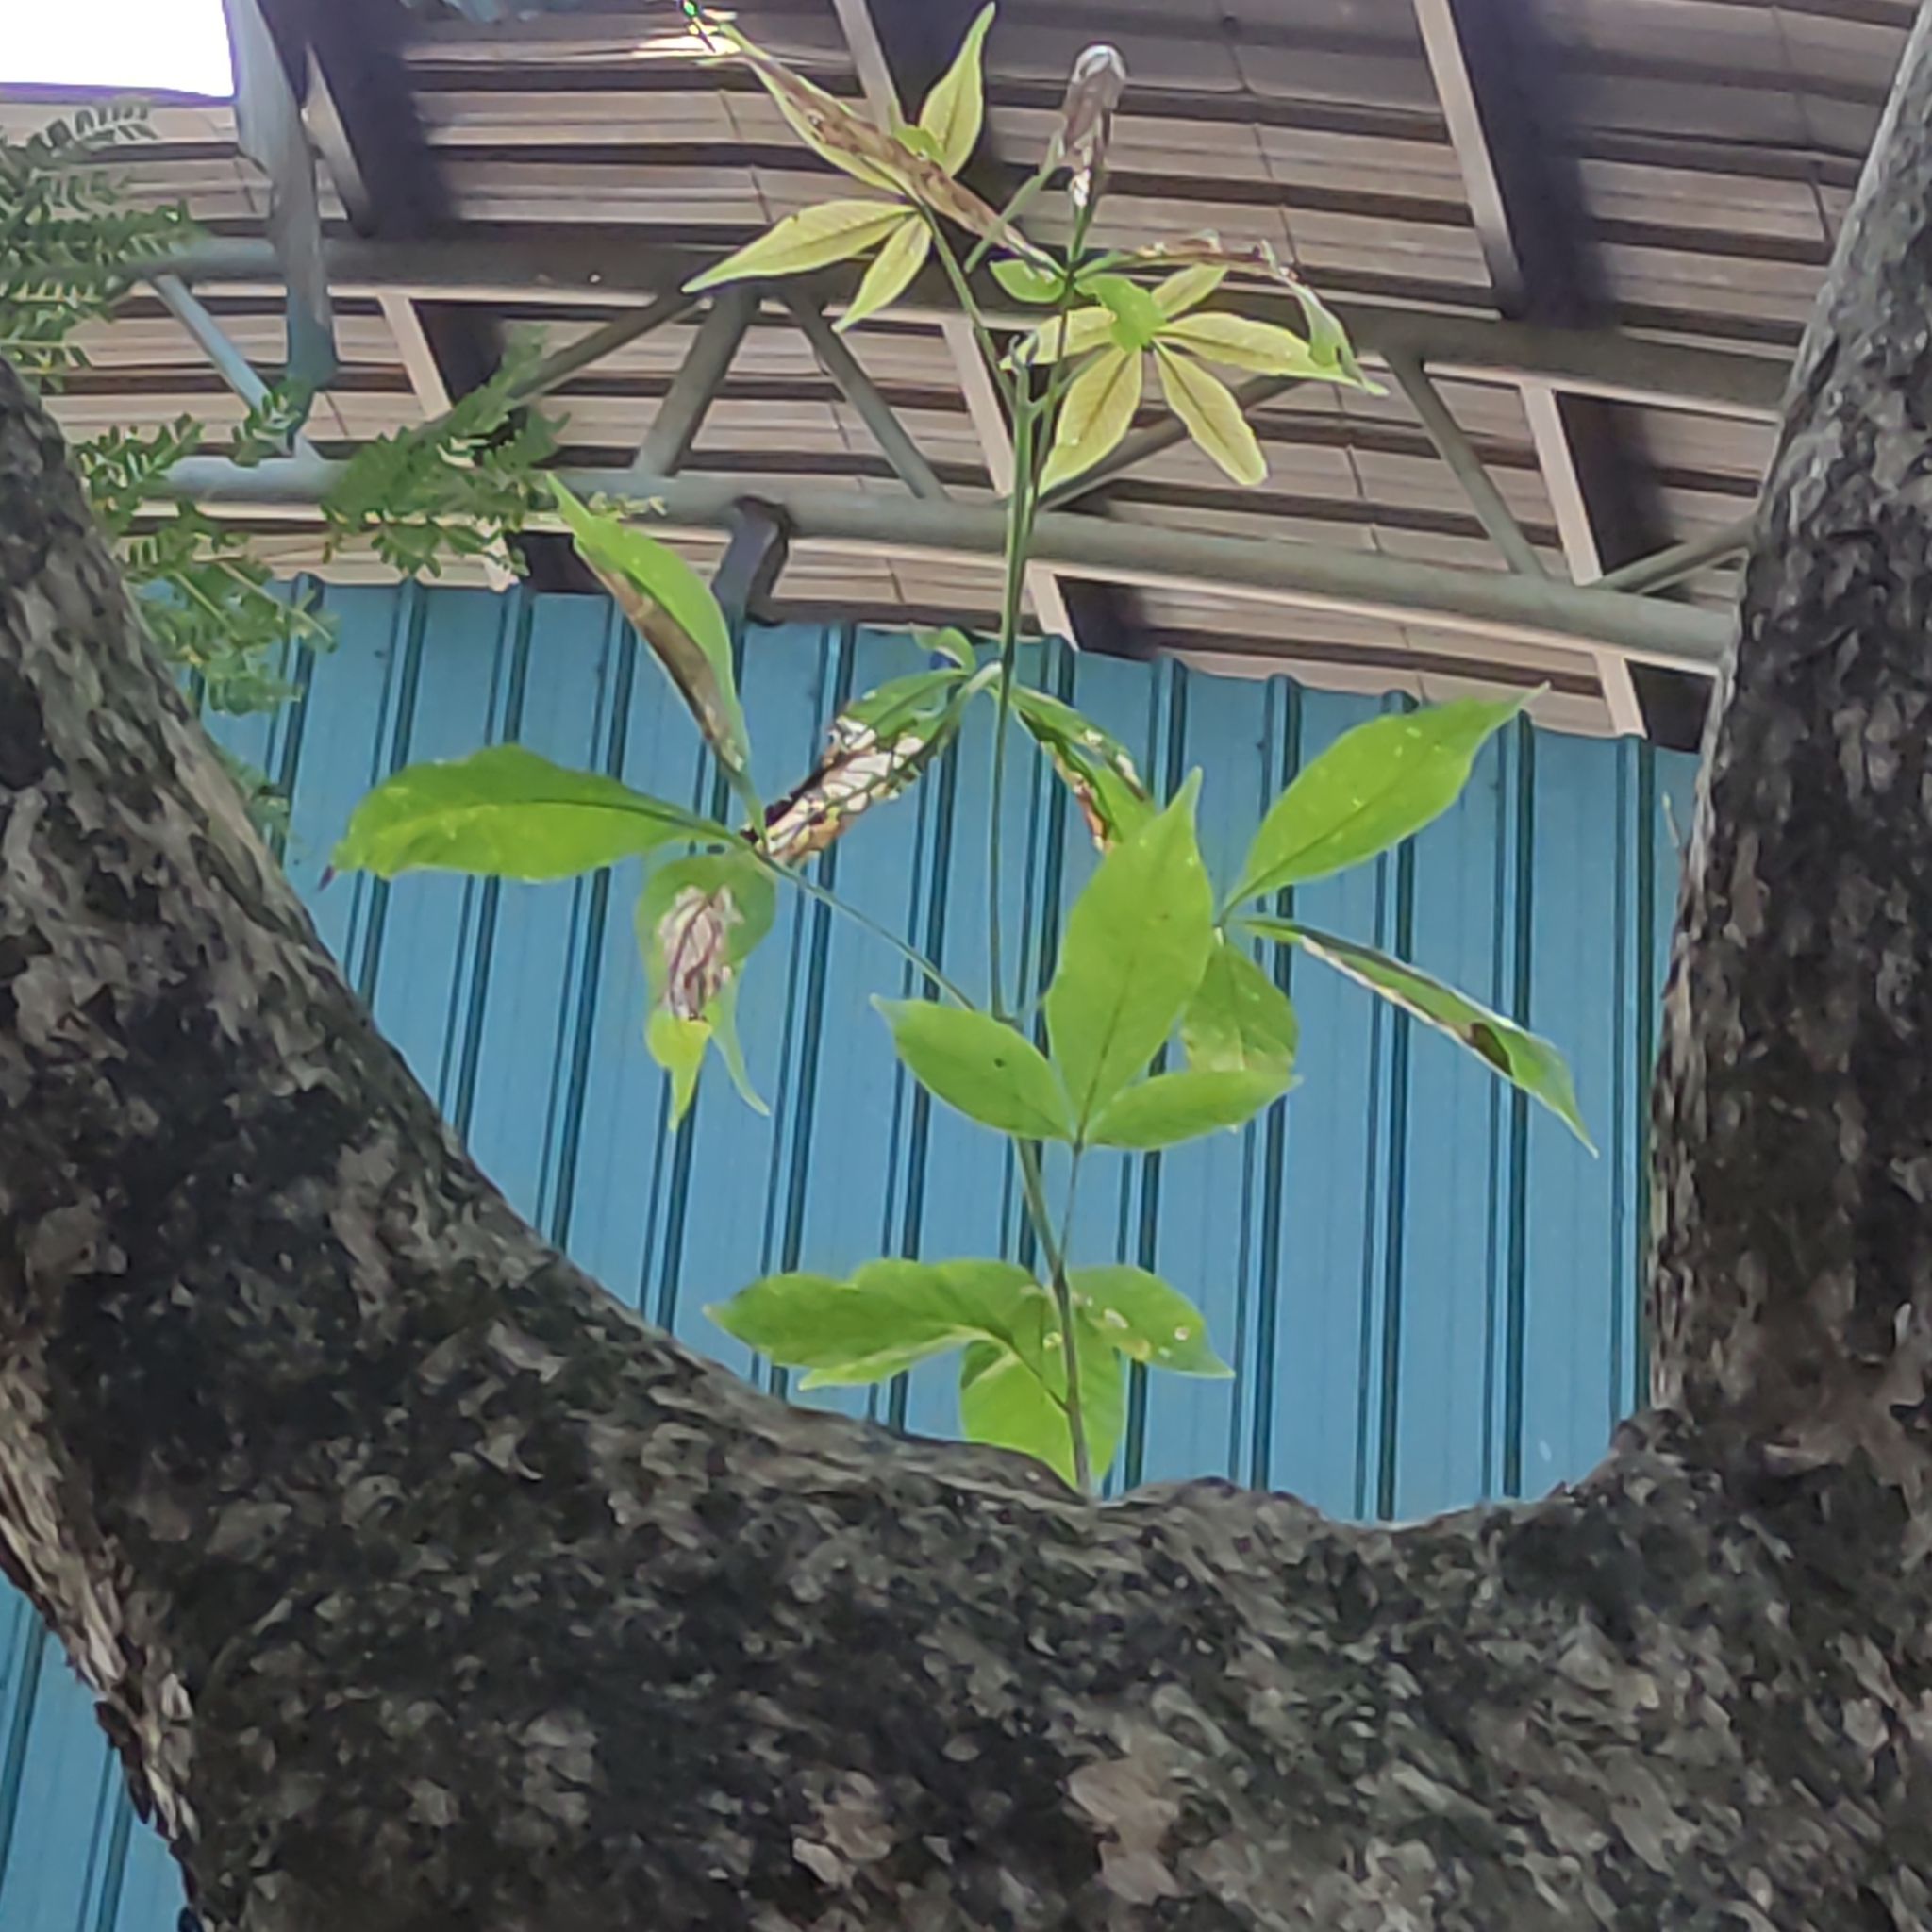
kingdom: Plantae
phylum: Tracheophyta
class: Magnoliopsida
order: Lamiales
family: Lamiaceae
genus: Vitex
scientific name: Vitex pinnata
